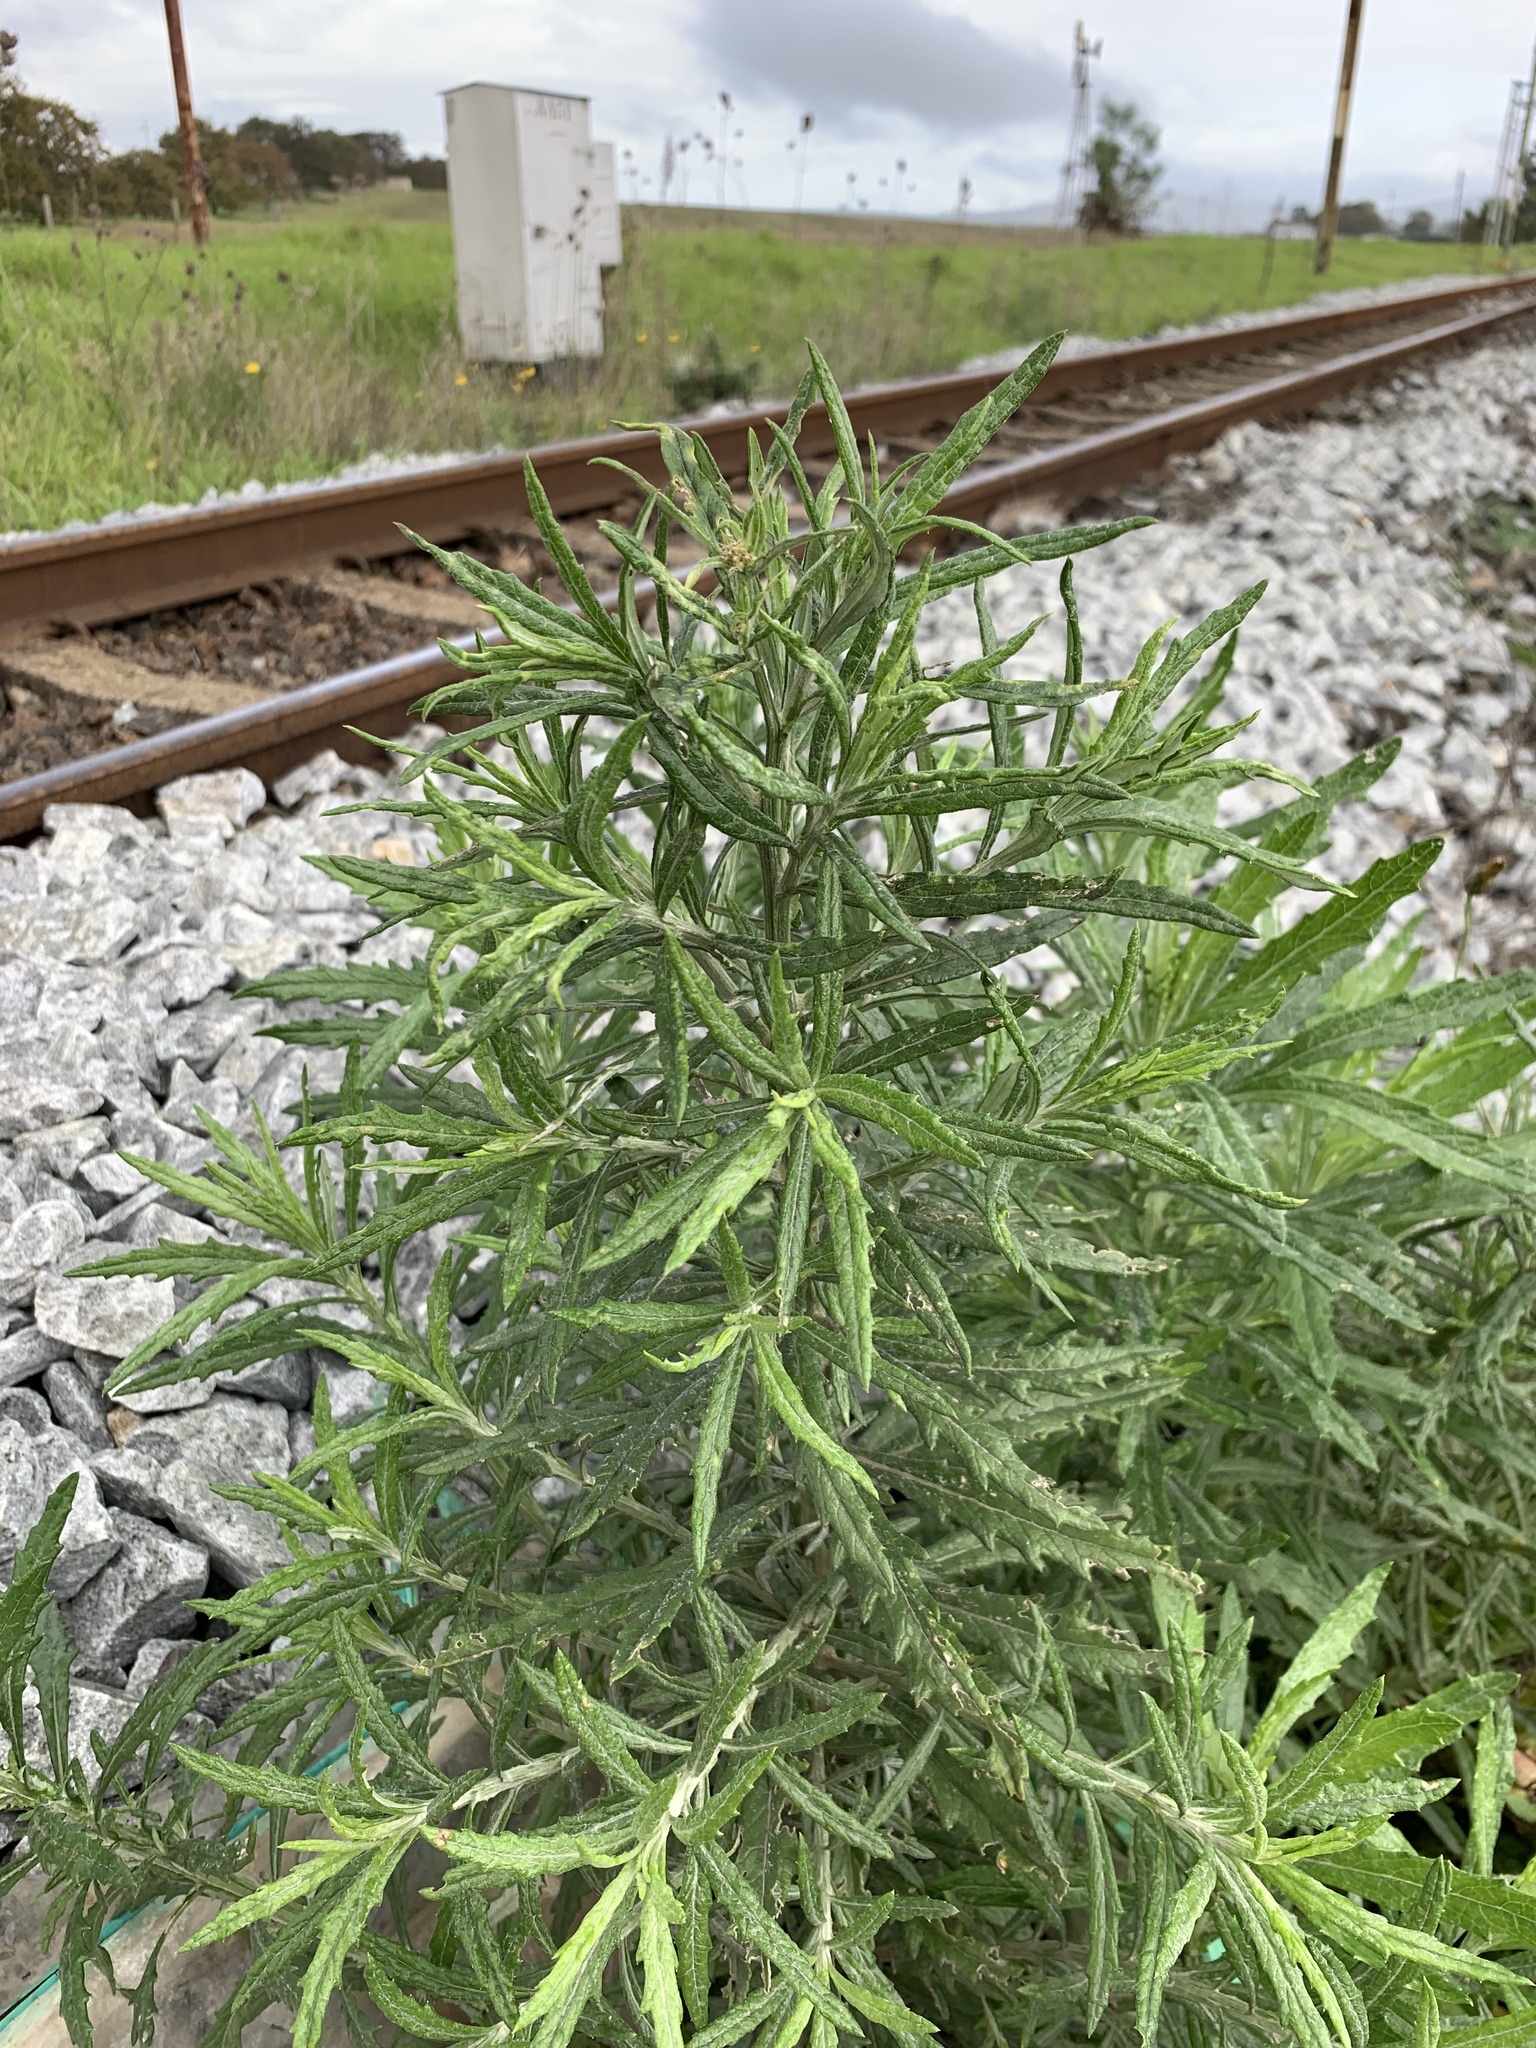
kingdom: Plantae
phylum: Tracheophyta
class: Magnoliopsida
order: Asterales
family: Asteraceae
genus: Senecio
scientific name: Senecio pterophorus
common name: Shoddy ragwort
